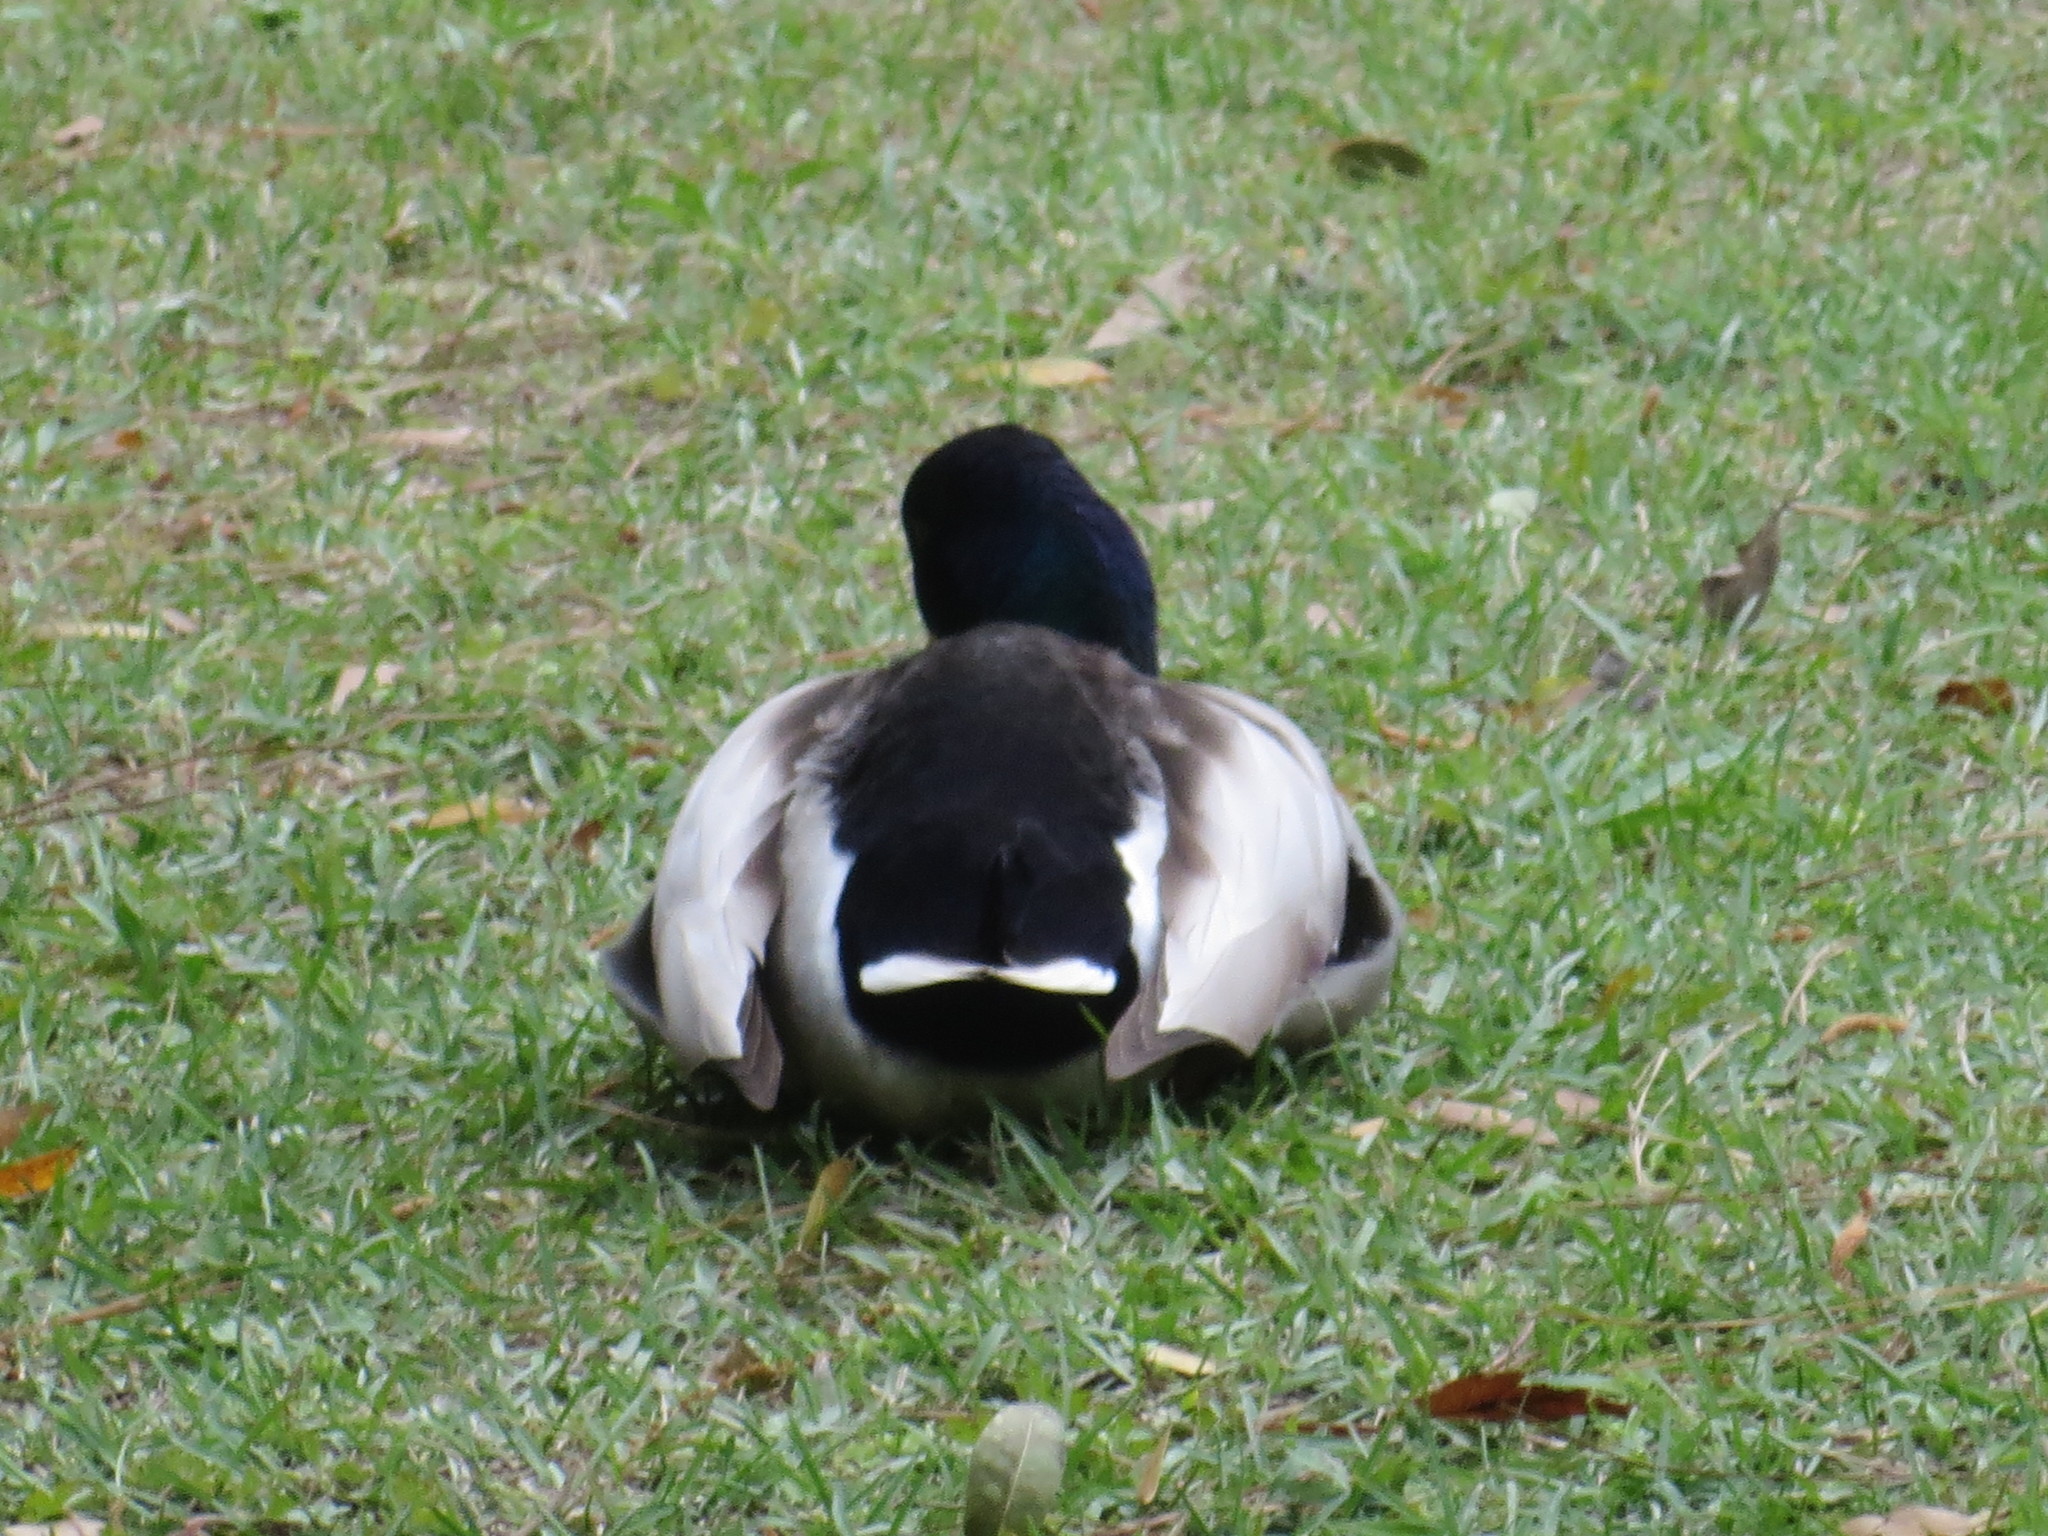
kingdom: Animalia
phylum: Chordata
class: Aves
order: Anseriformes
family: Anatidae
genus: Anas
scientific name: Anas platyrhynchos
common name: Mallard
